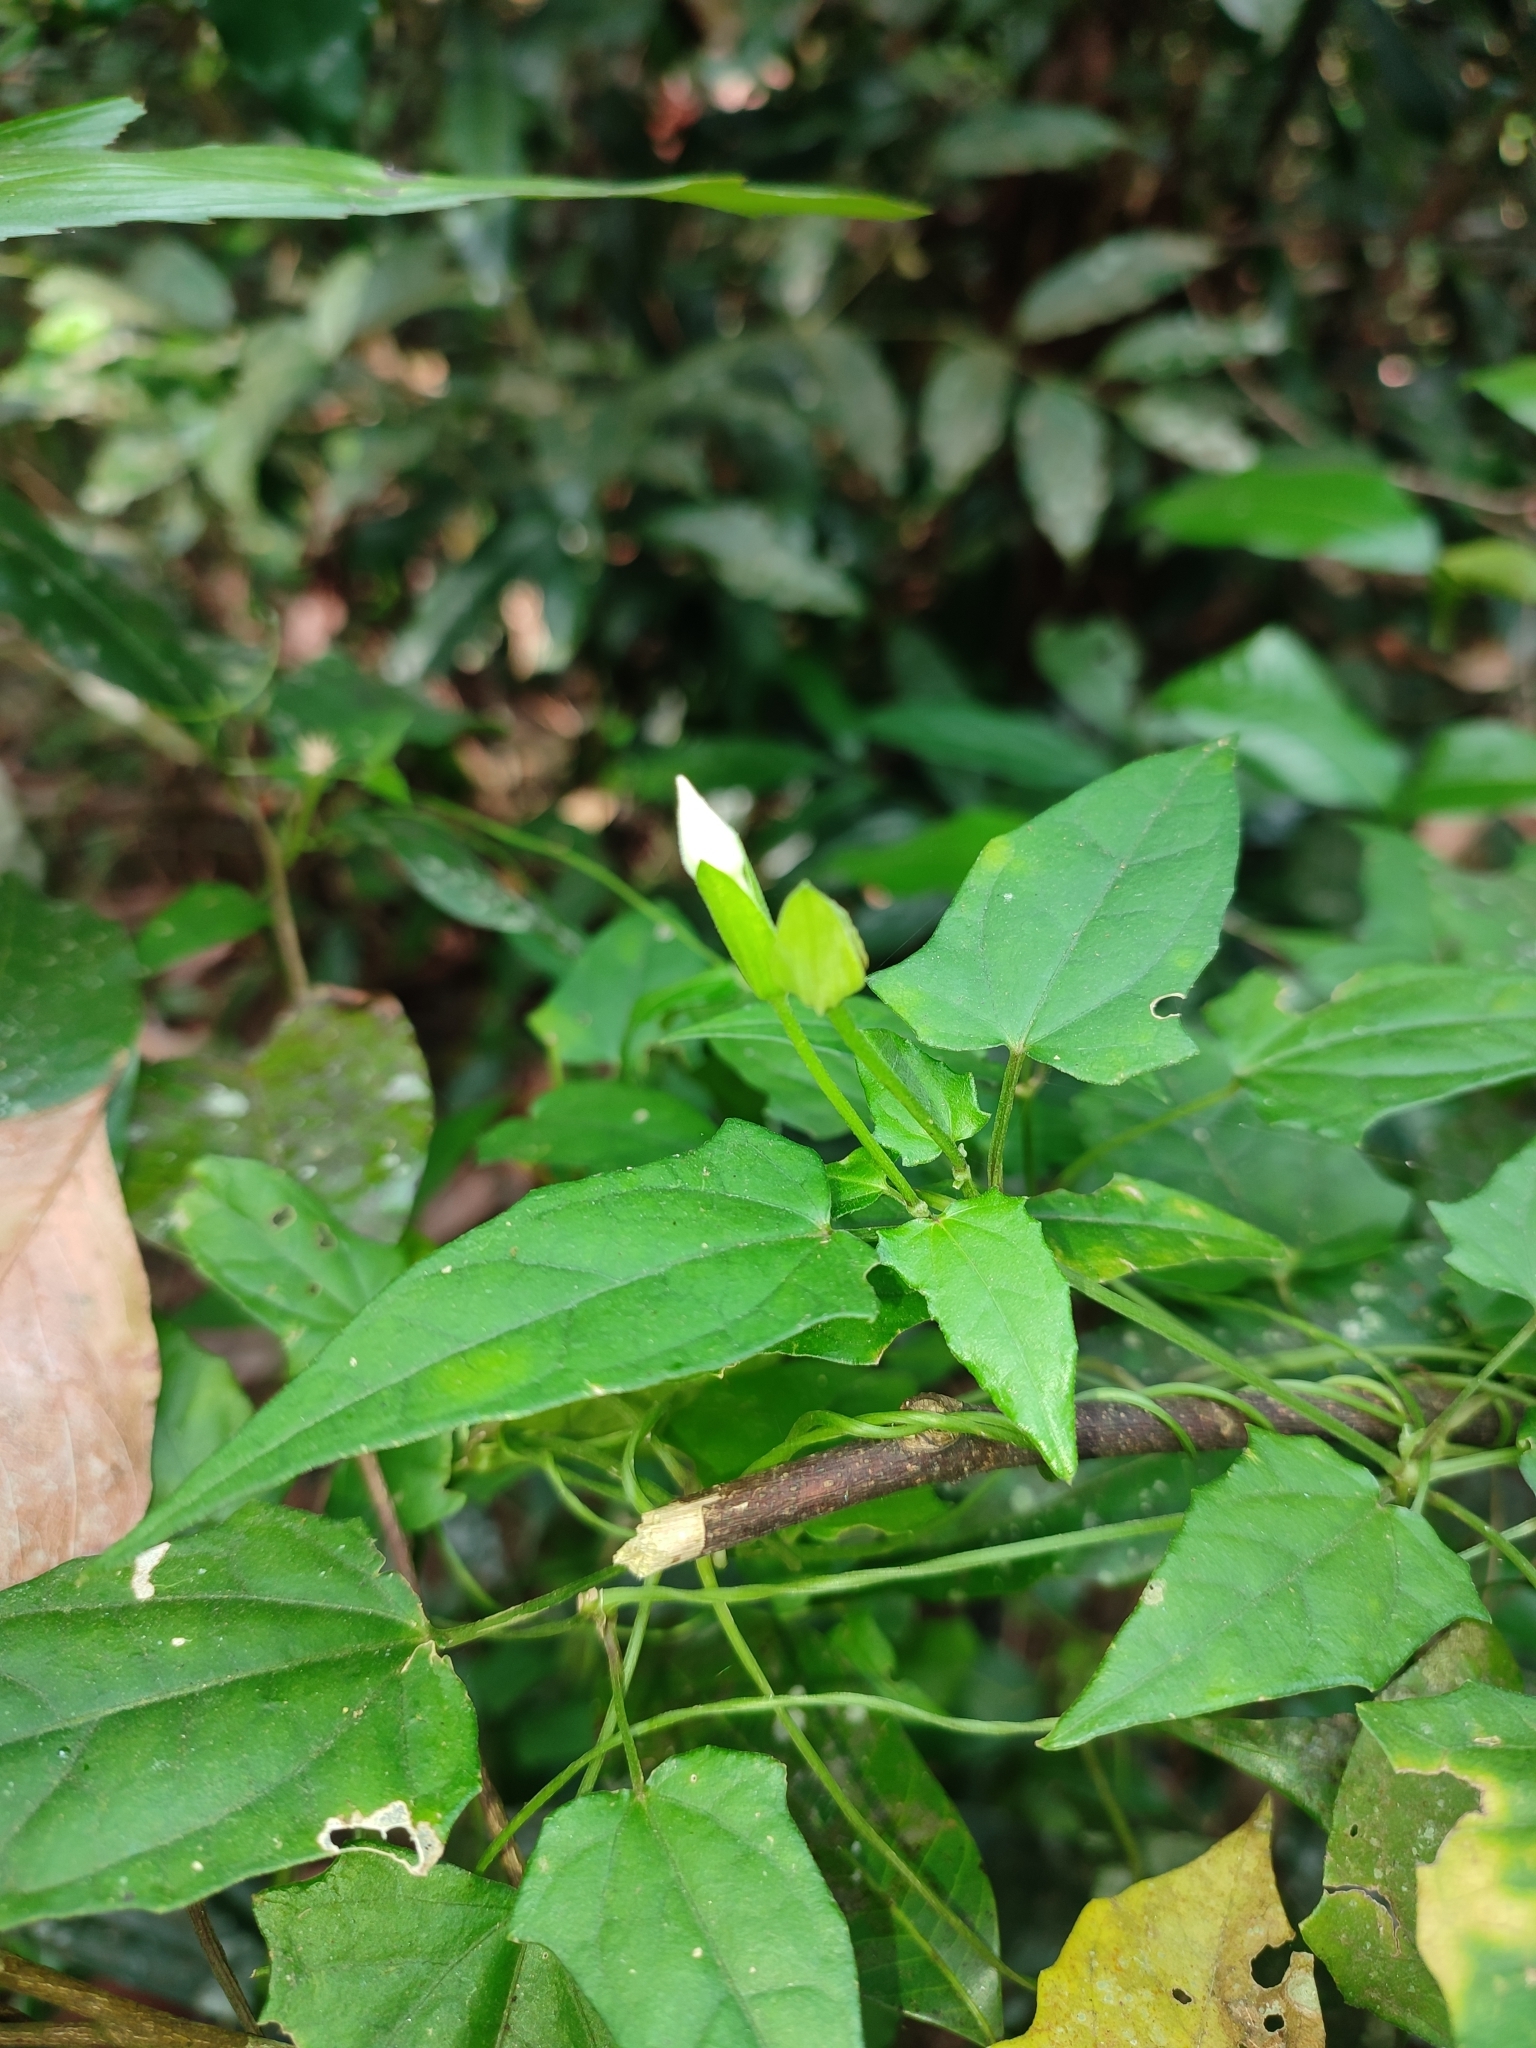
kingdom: Plantae
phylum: Tracheophyta
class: Magnoliopsida
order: Lamiales
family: Acanthaceae
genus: Thunbergia
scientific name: Thunbergia fragrans
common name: Whitelady
